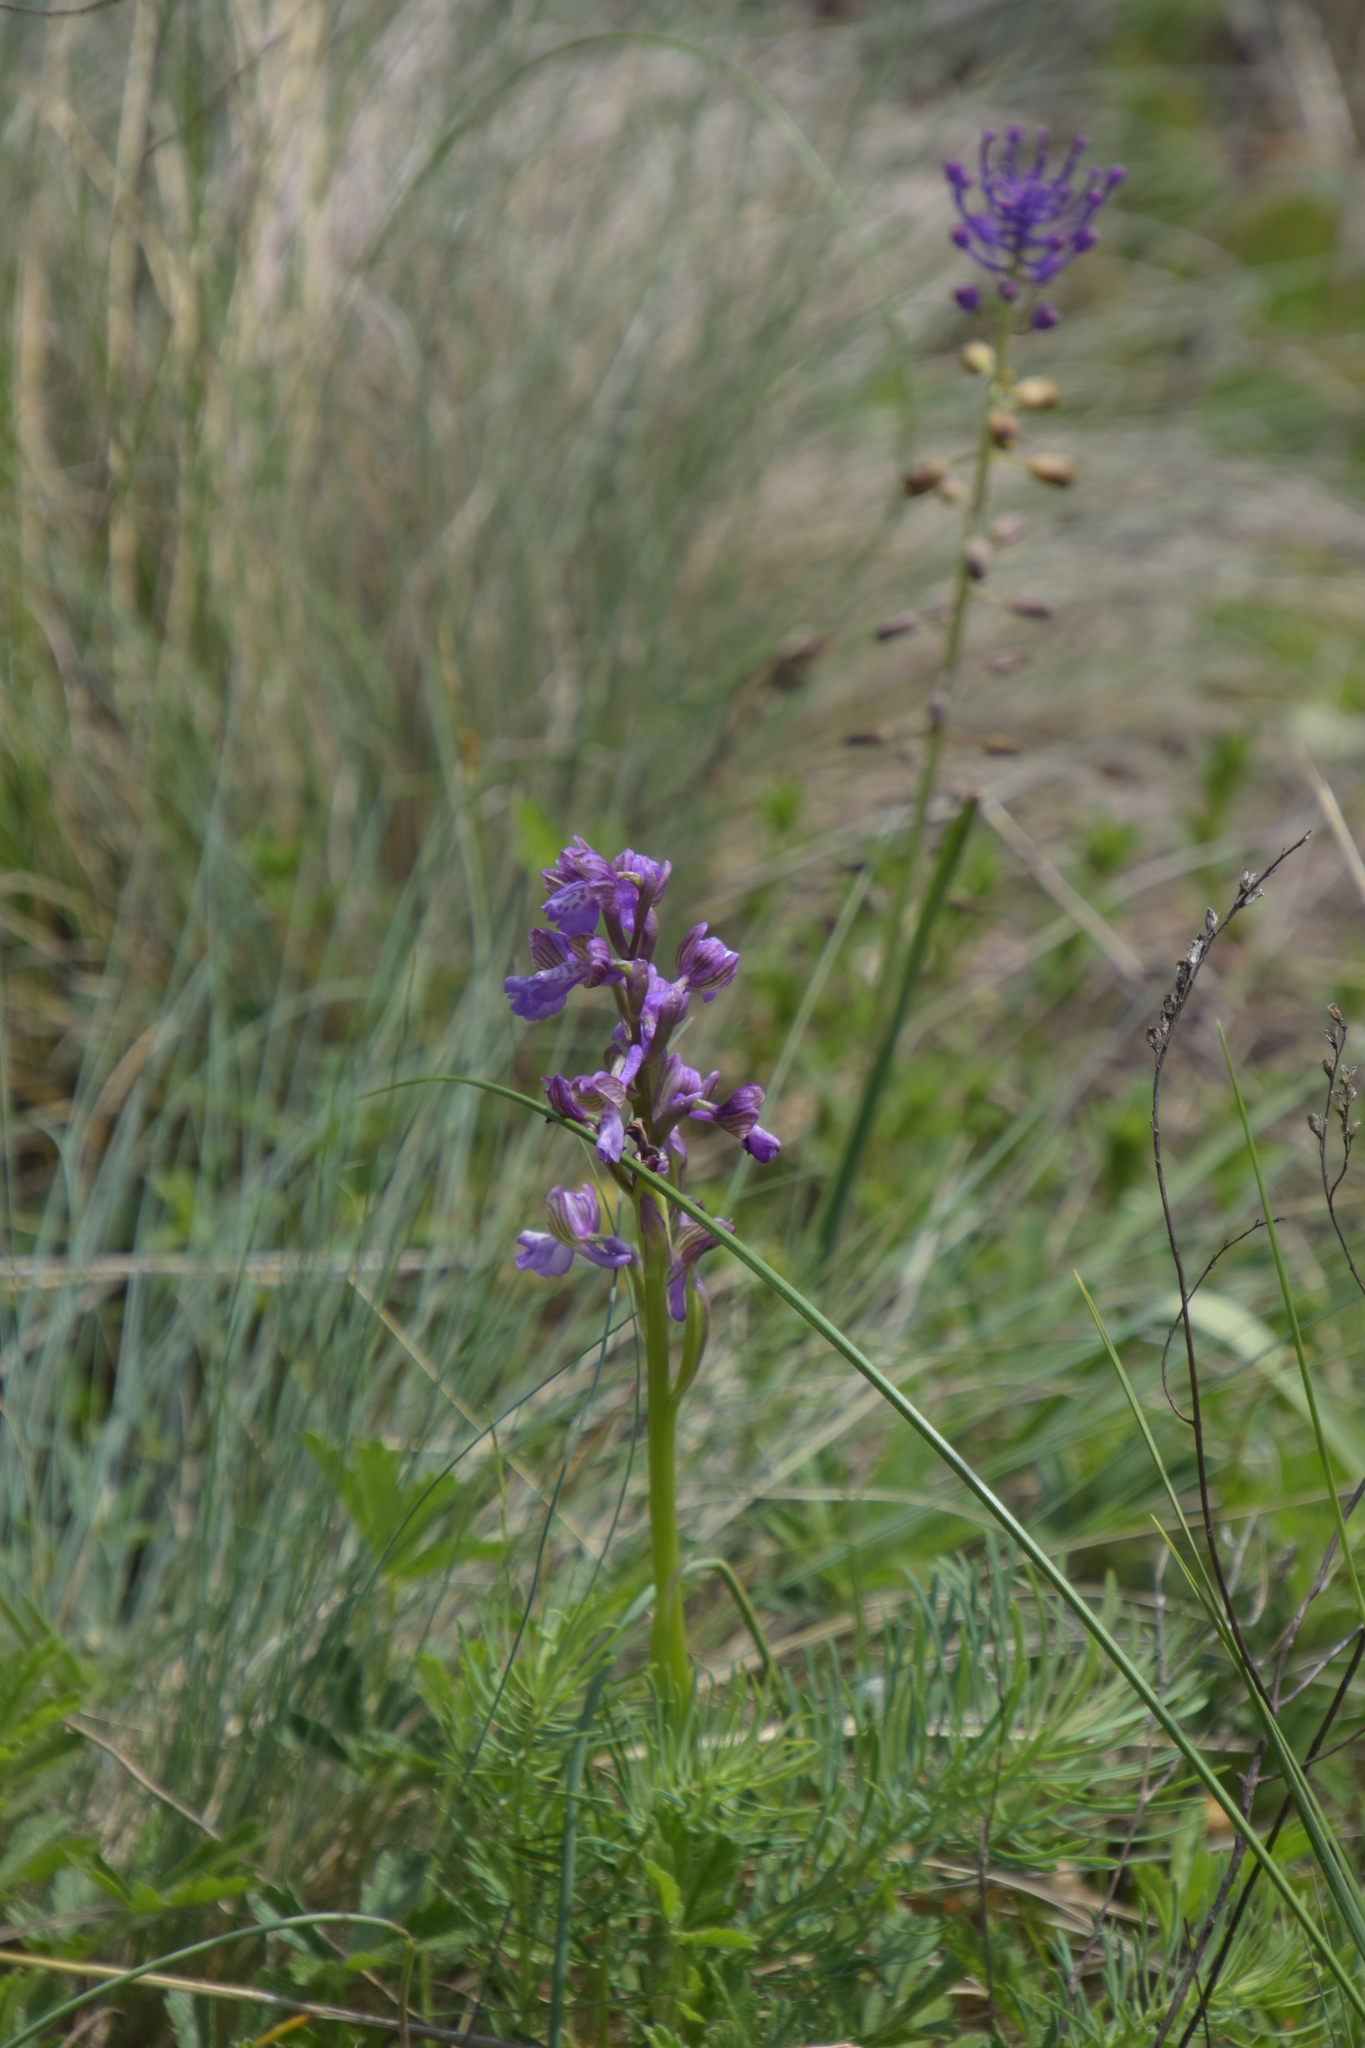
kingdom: Plantae
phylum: Tracheophyta
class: Liliopsida
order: Asparagales
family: Orchidaceae
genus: Anacamptis
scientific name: Anacamptis morio
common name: Green-winged orchid
